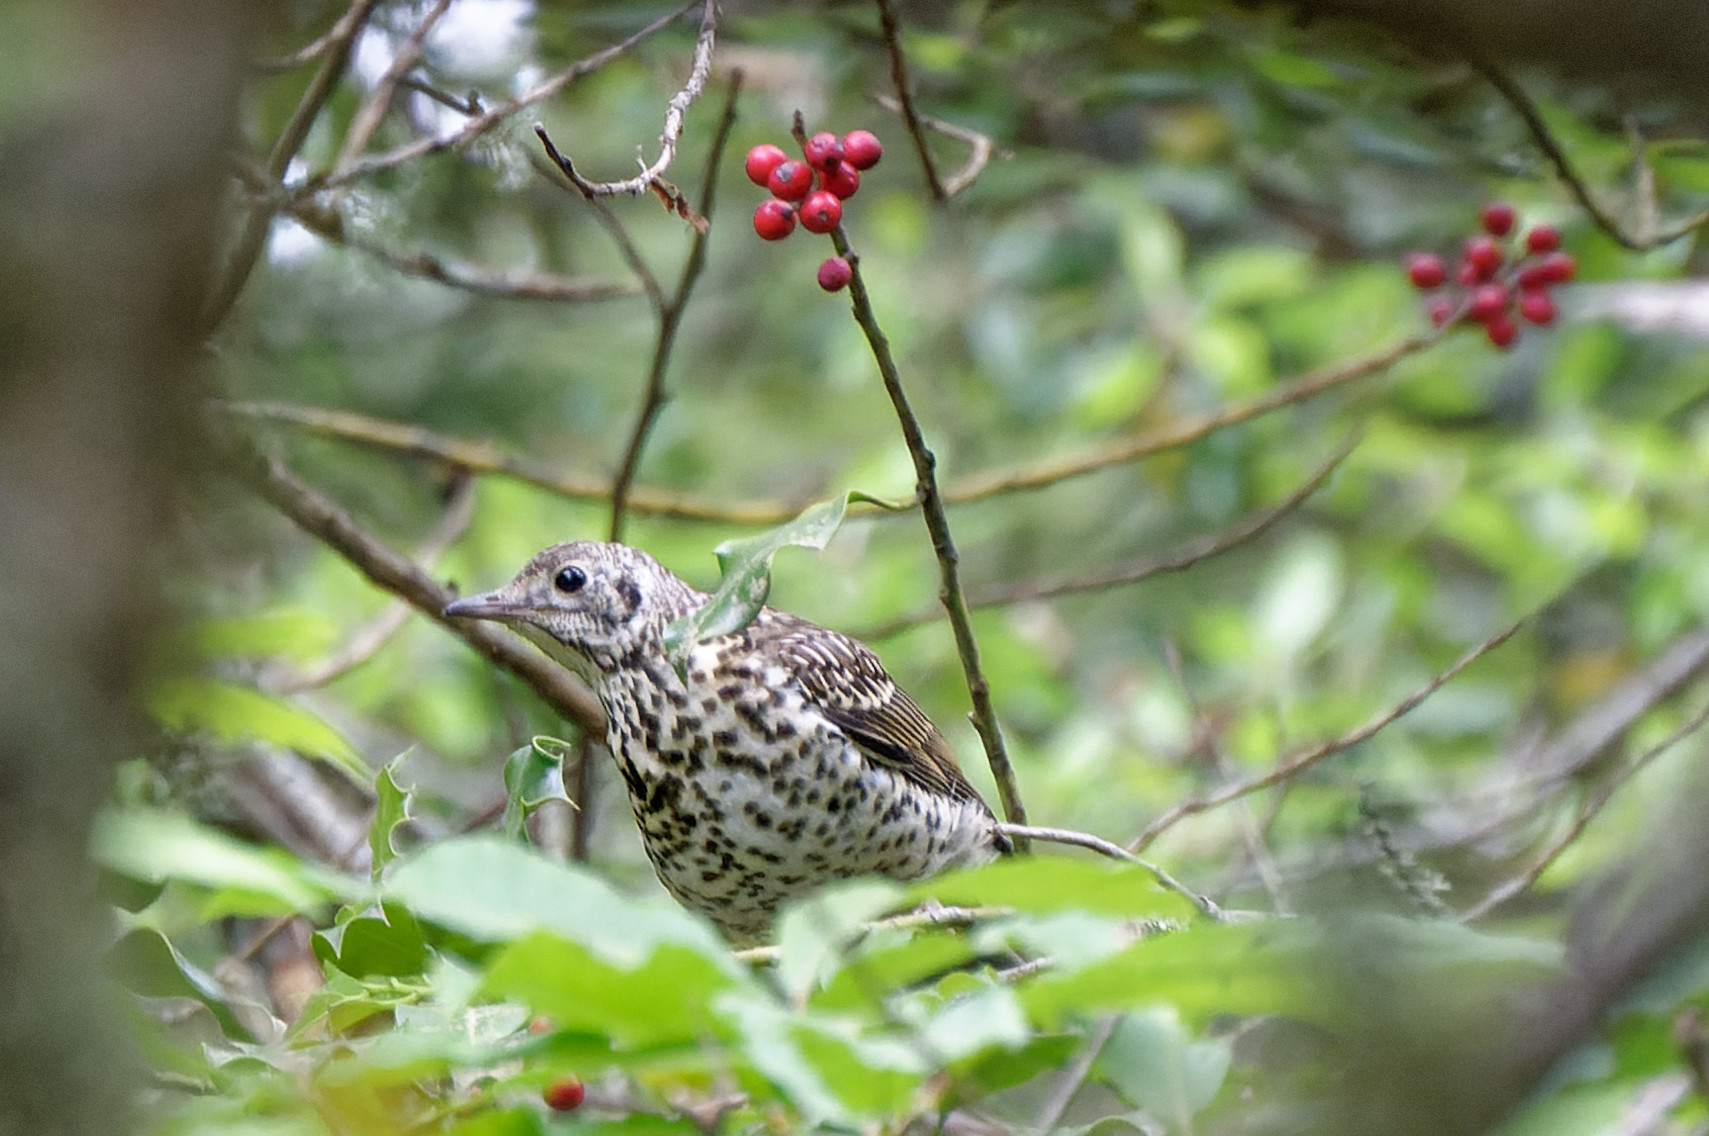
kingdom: Animalia
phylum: Chordata
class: Aves
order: Passeriformes
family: Turdidae
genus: Turdus
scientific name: Turdus viscivorus
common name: Mistle thrush
